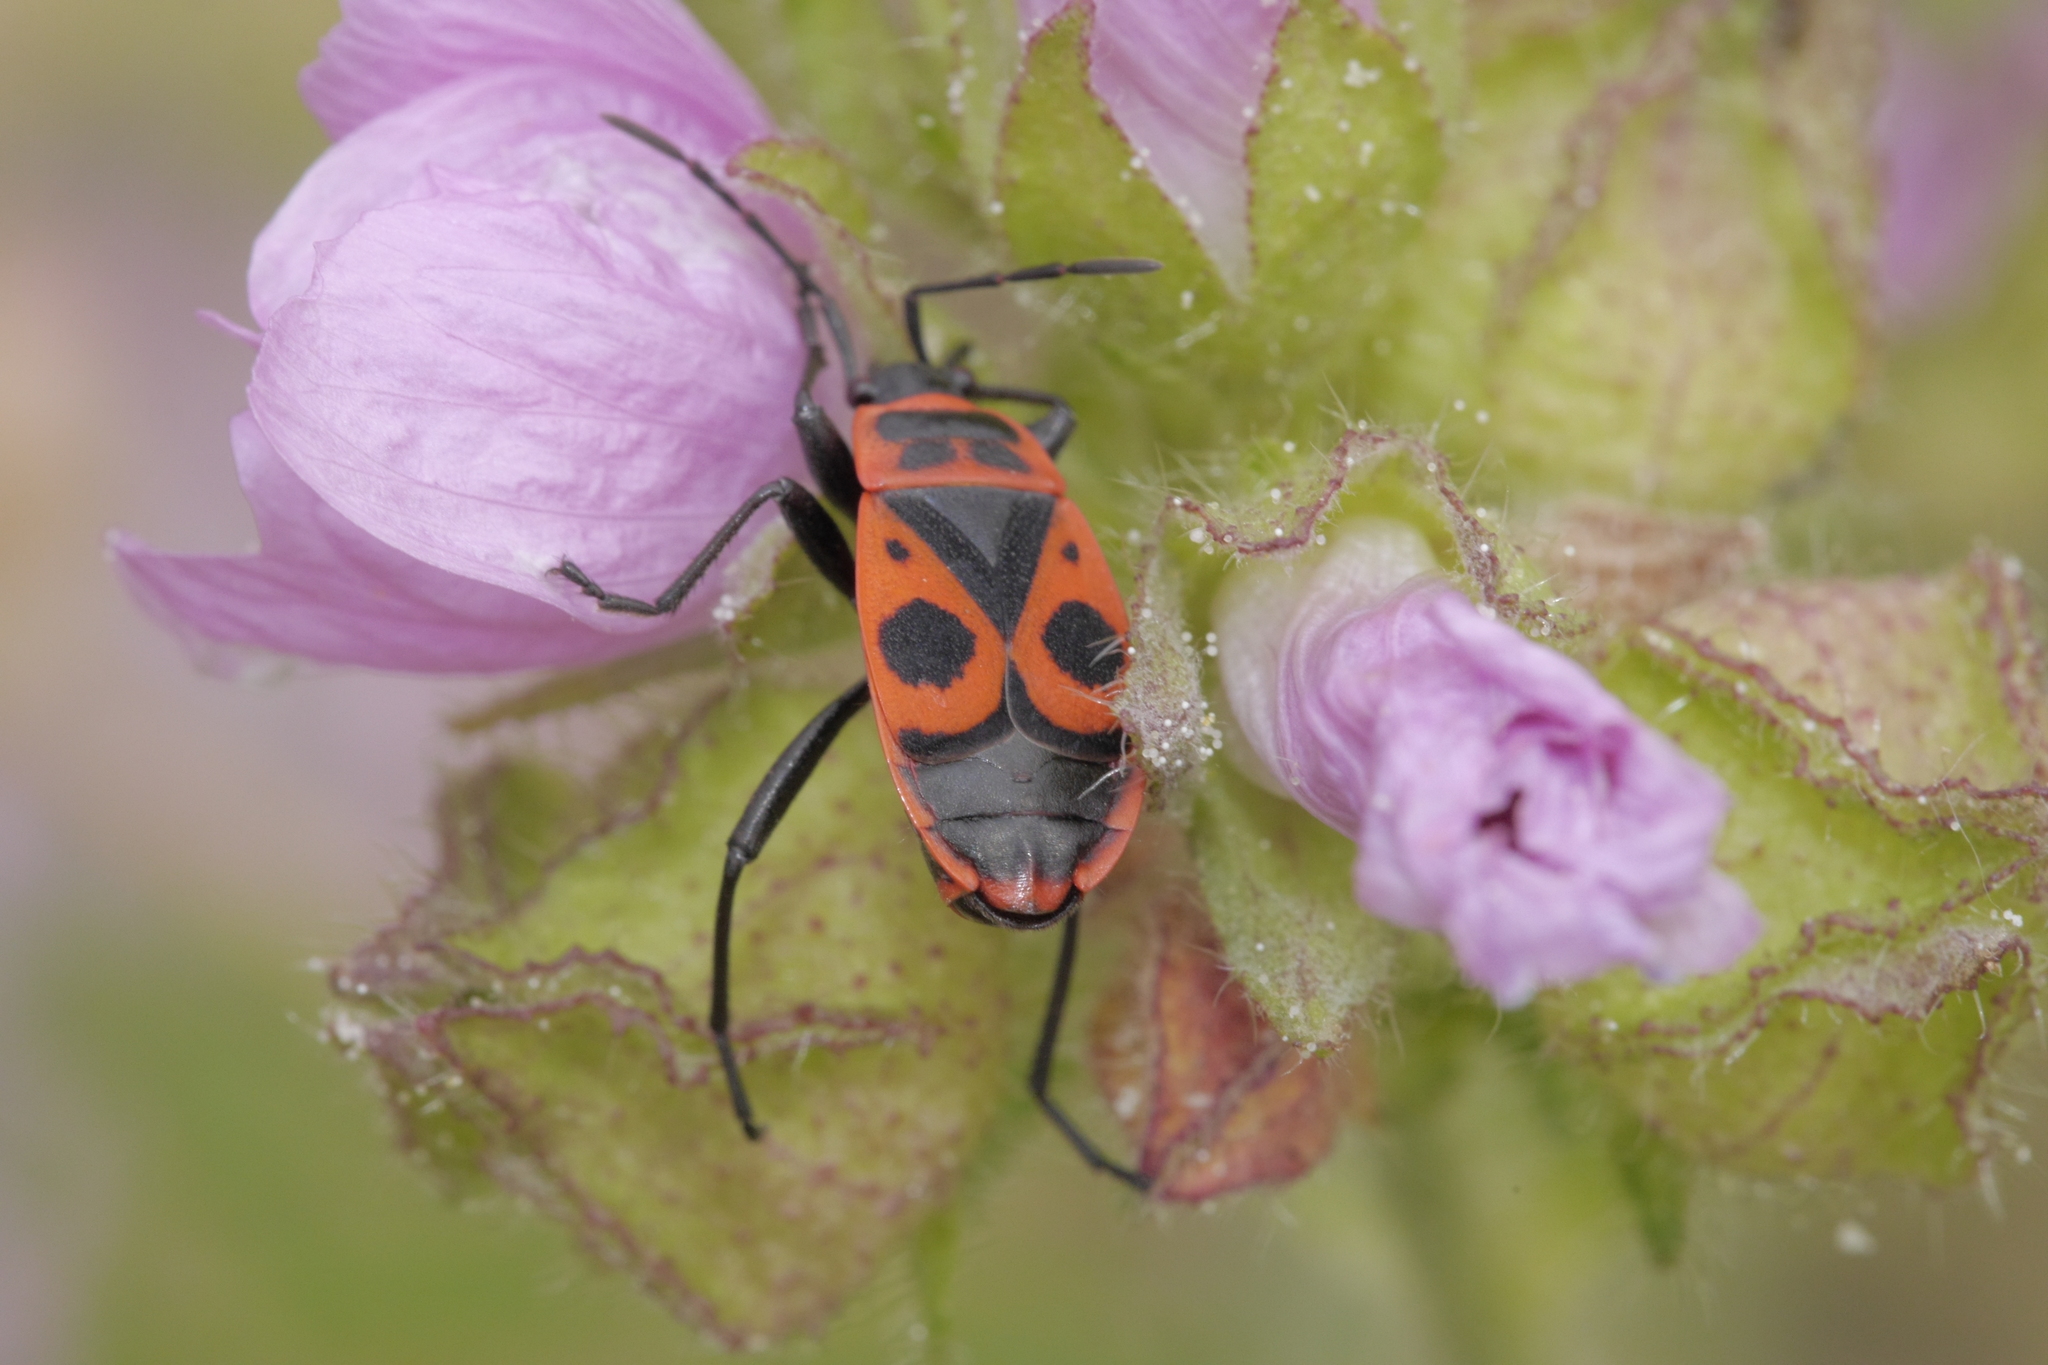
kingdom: Animalia
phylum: Arthropoda
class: Insecta
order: Hemiptera
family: Pyrrhocoridae
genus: Pyrrhocoris
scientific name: Pyrrhocoris apterus
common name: Firebug
